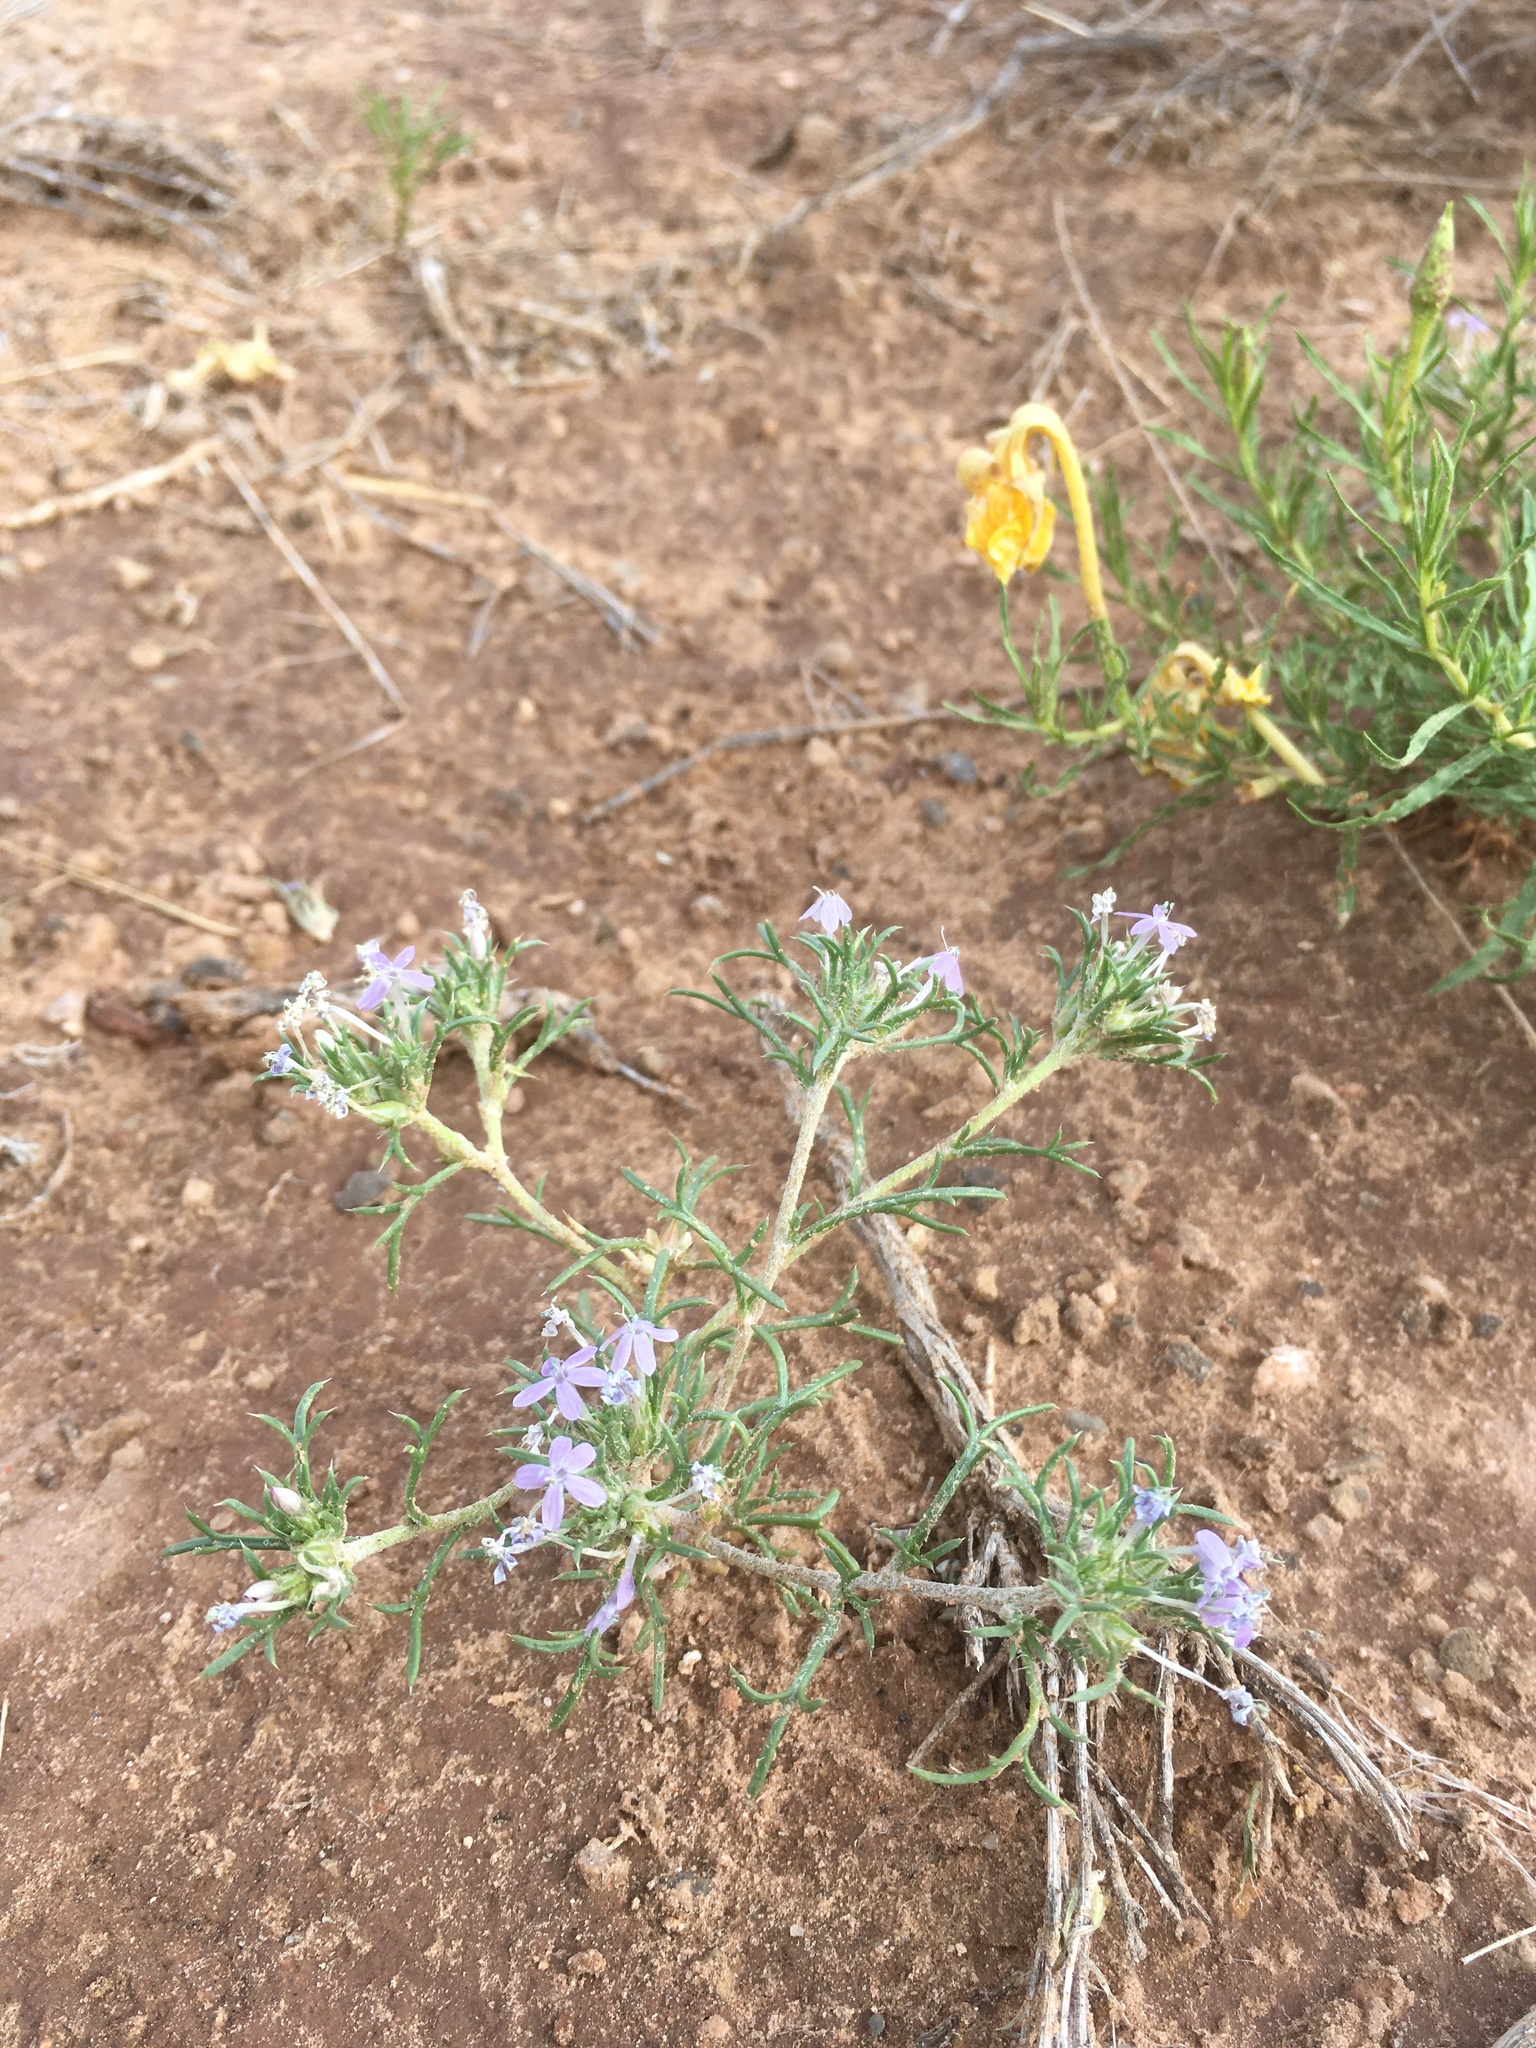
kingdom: Plantae
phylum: Tracheophyta
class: Magnoliopsida
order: Ericales
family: Polemoniaceae
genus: Ipomopsis
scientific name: Ipomopsis pumila
